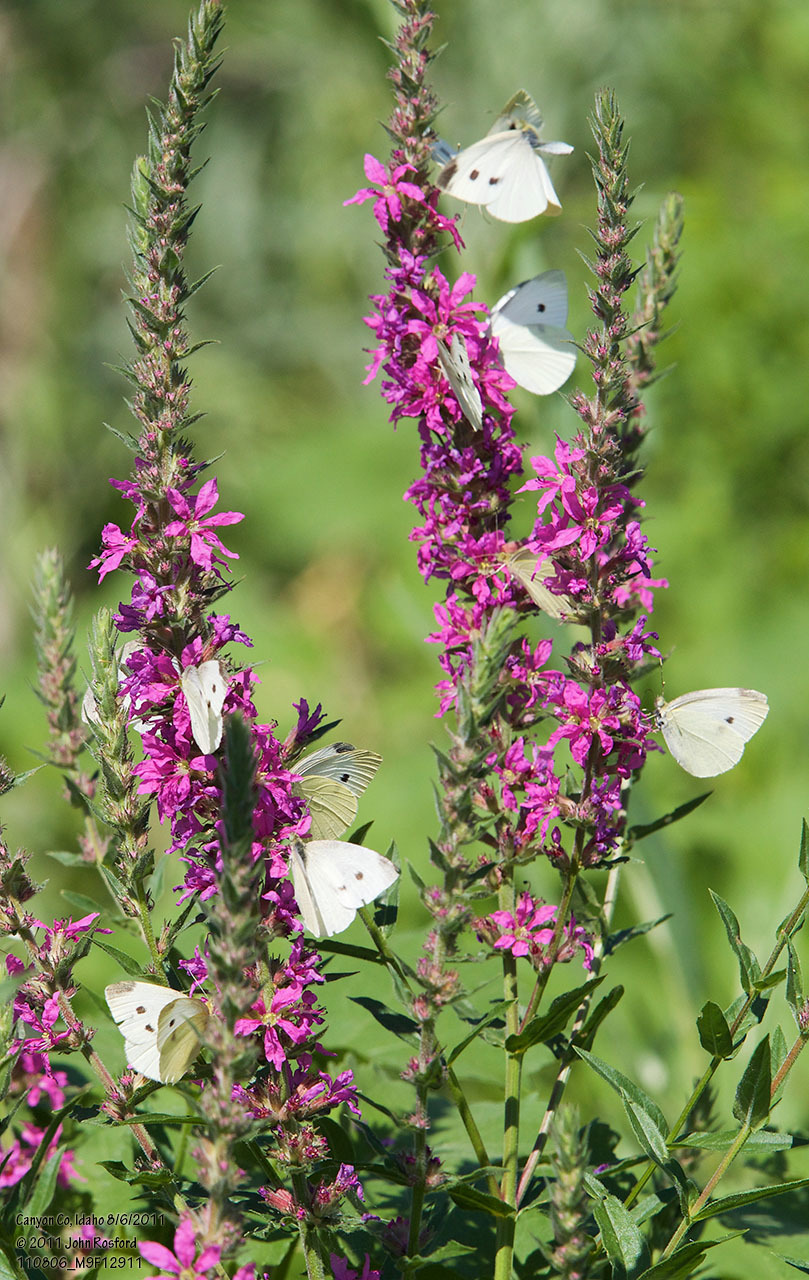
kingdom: Plantae
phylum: Tracheophyta
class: Magnoliopsida
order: Myrtales
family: Lythraceae
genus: Lythrum
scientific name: Lythrum salicaria
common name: Purple loosestrife
